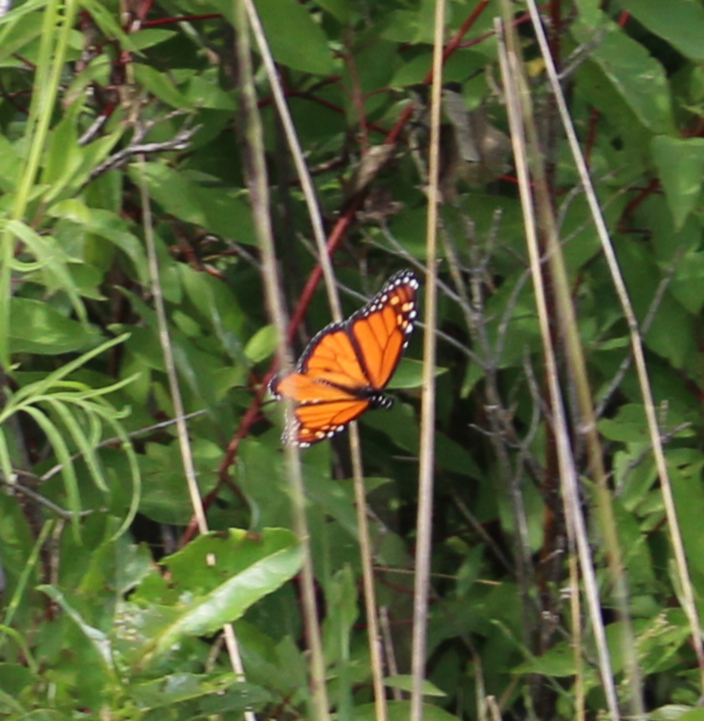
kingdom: Animalia
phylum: Arthropoda
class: Insecta
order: Lepidoptera
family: Nymphalidae
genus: Danaus
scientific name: Danaus plexippus
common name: Monarch
